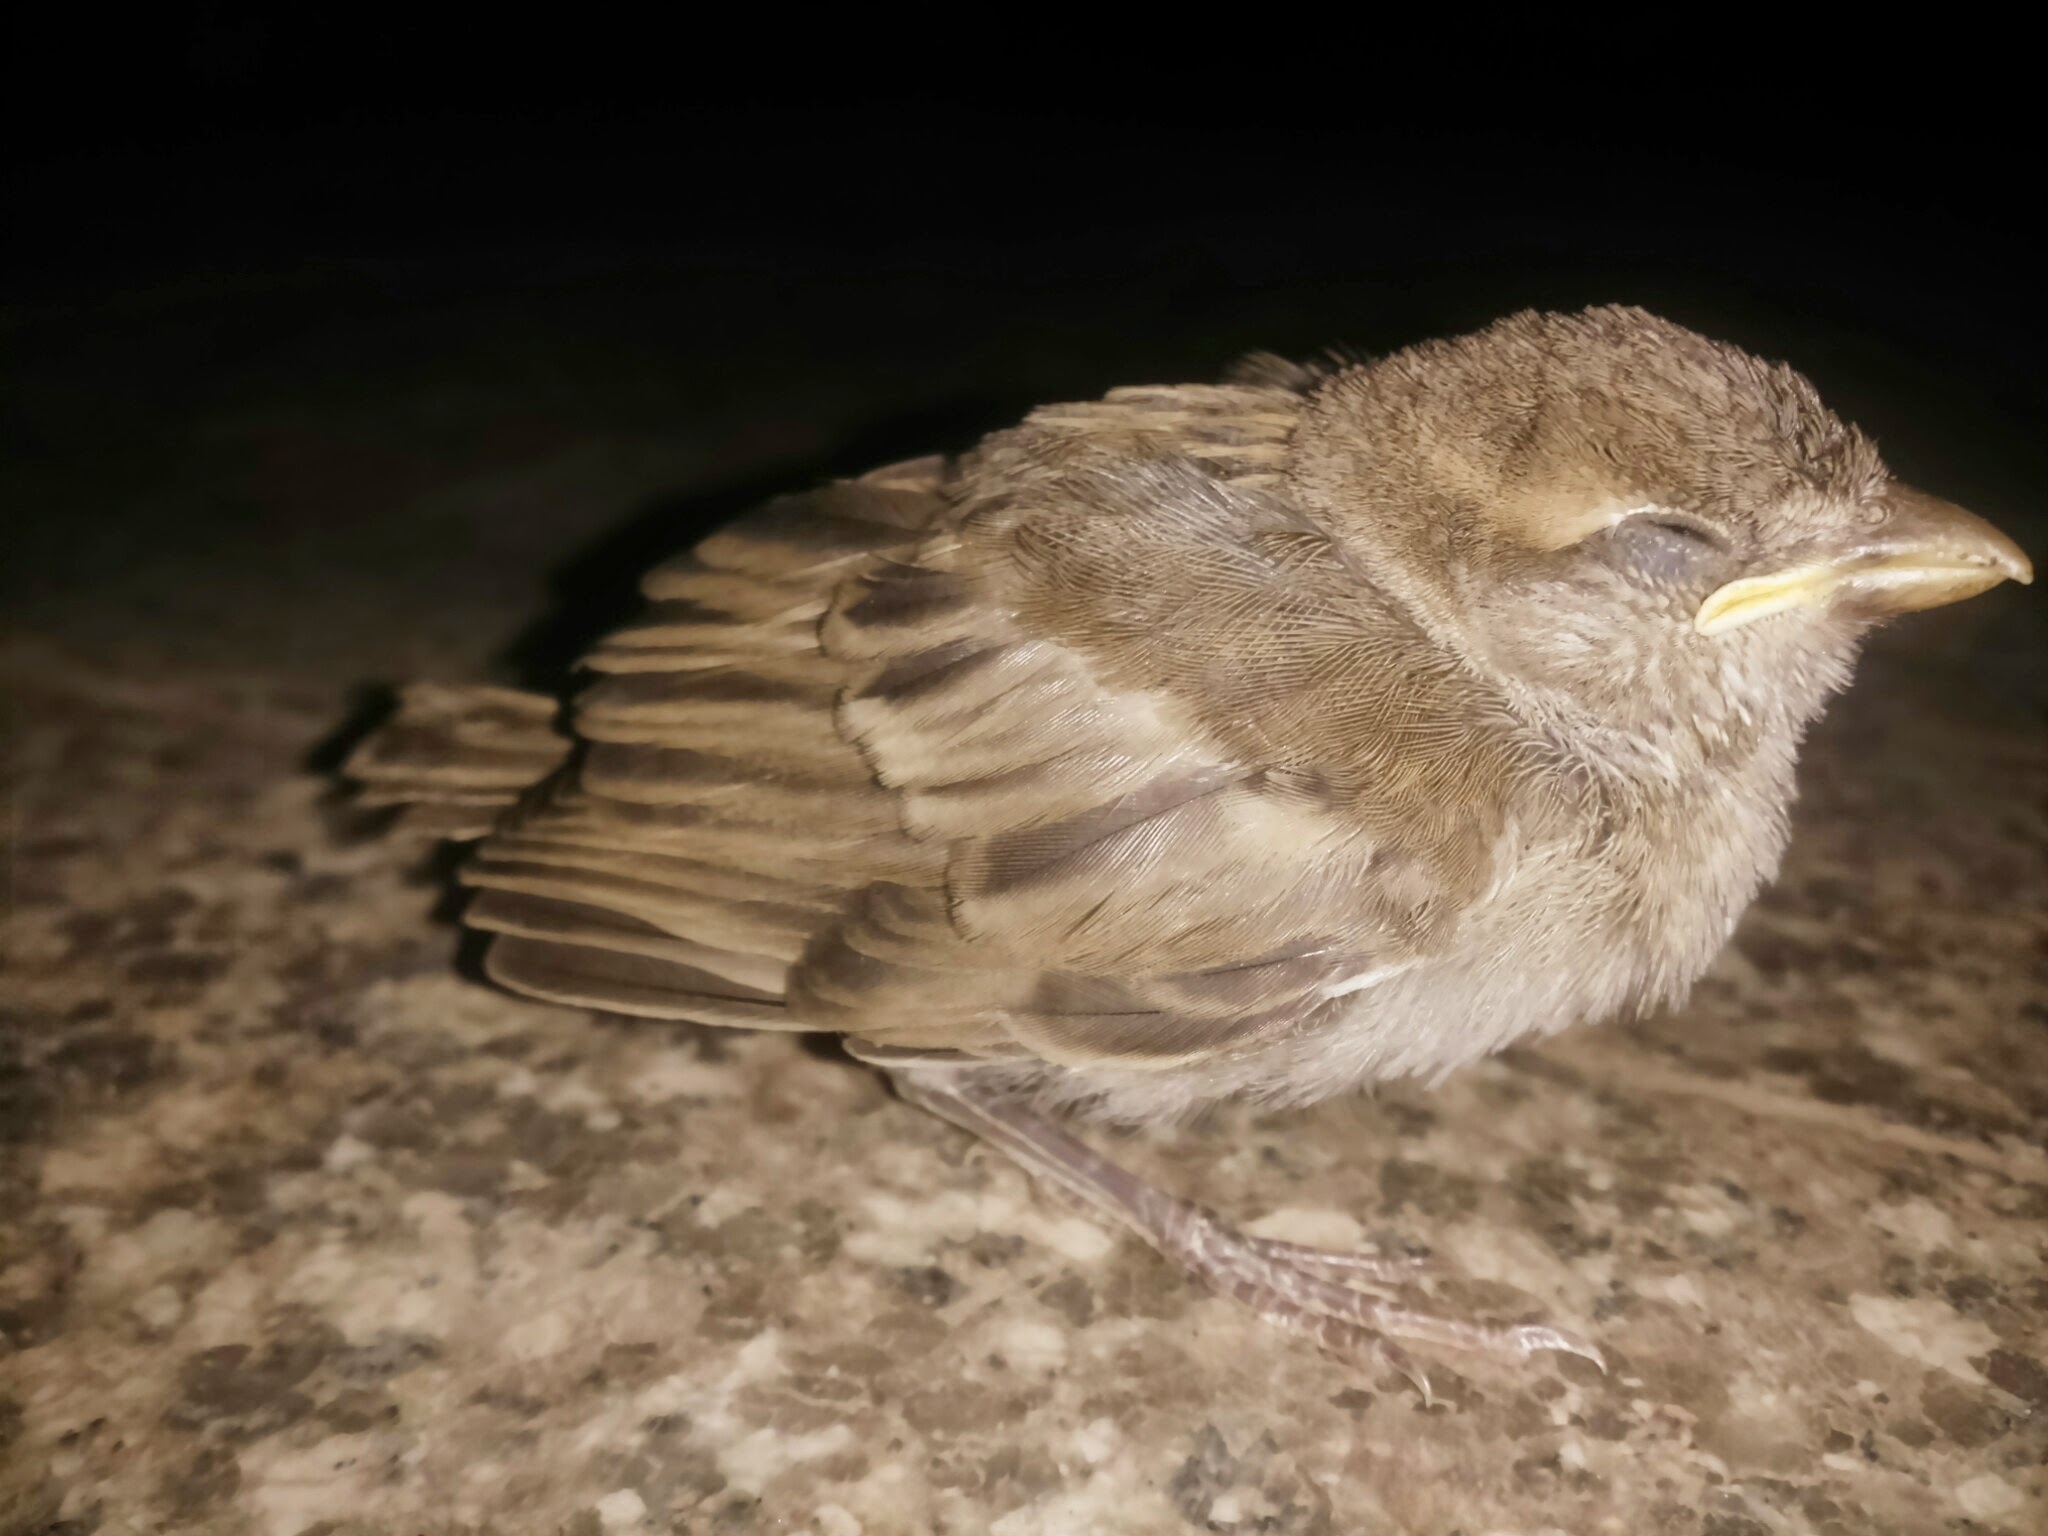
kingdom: Animalia
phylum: Chordata
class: Aves
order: Passeriformes
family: Passeridae
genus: Passer
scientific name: Passer domesticus
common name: House sparrow
